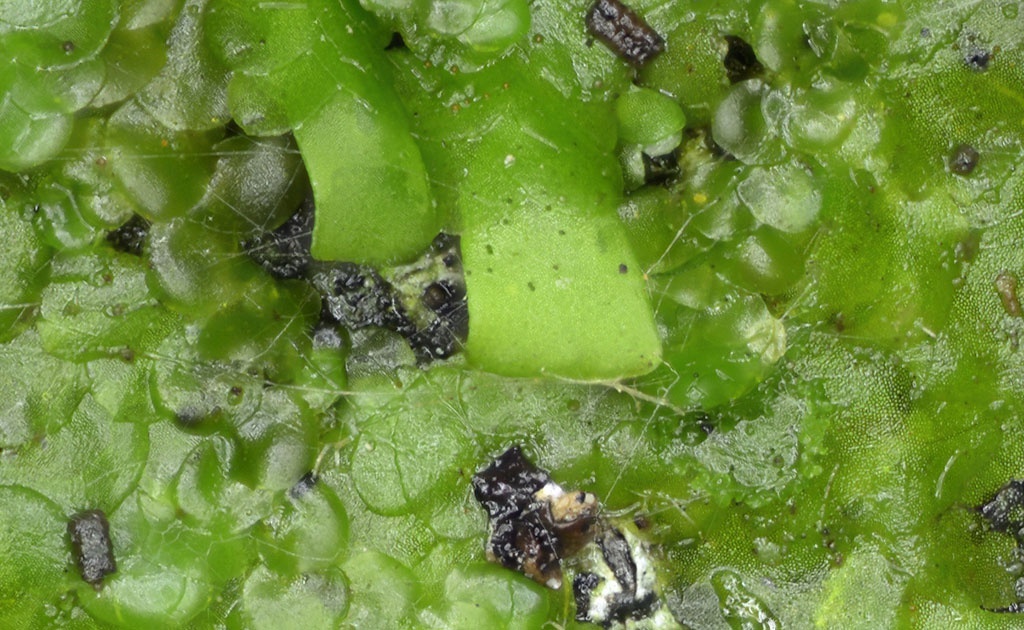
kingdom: Plantae
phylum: Marchantiophyta
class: Jungermanniopsida
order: Porellales
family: Radulaceae
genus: Radula
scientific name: Radula complanata
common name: Flat-leaved scalewort
